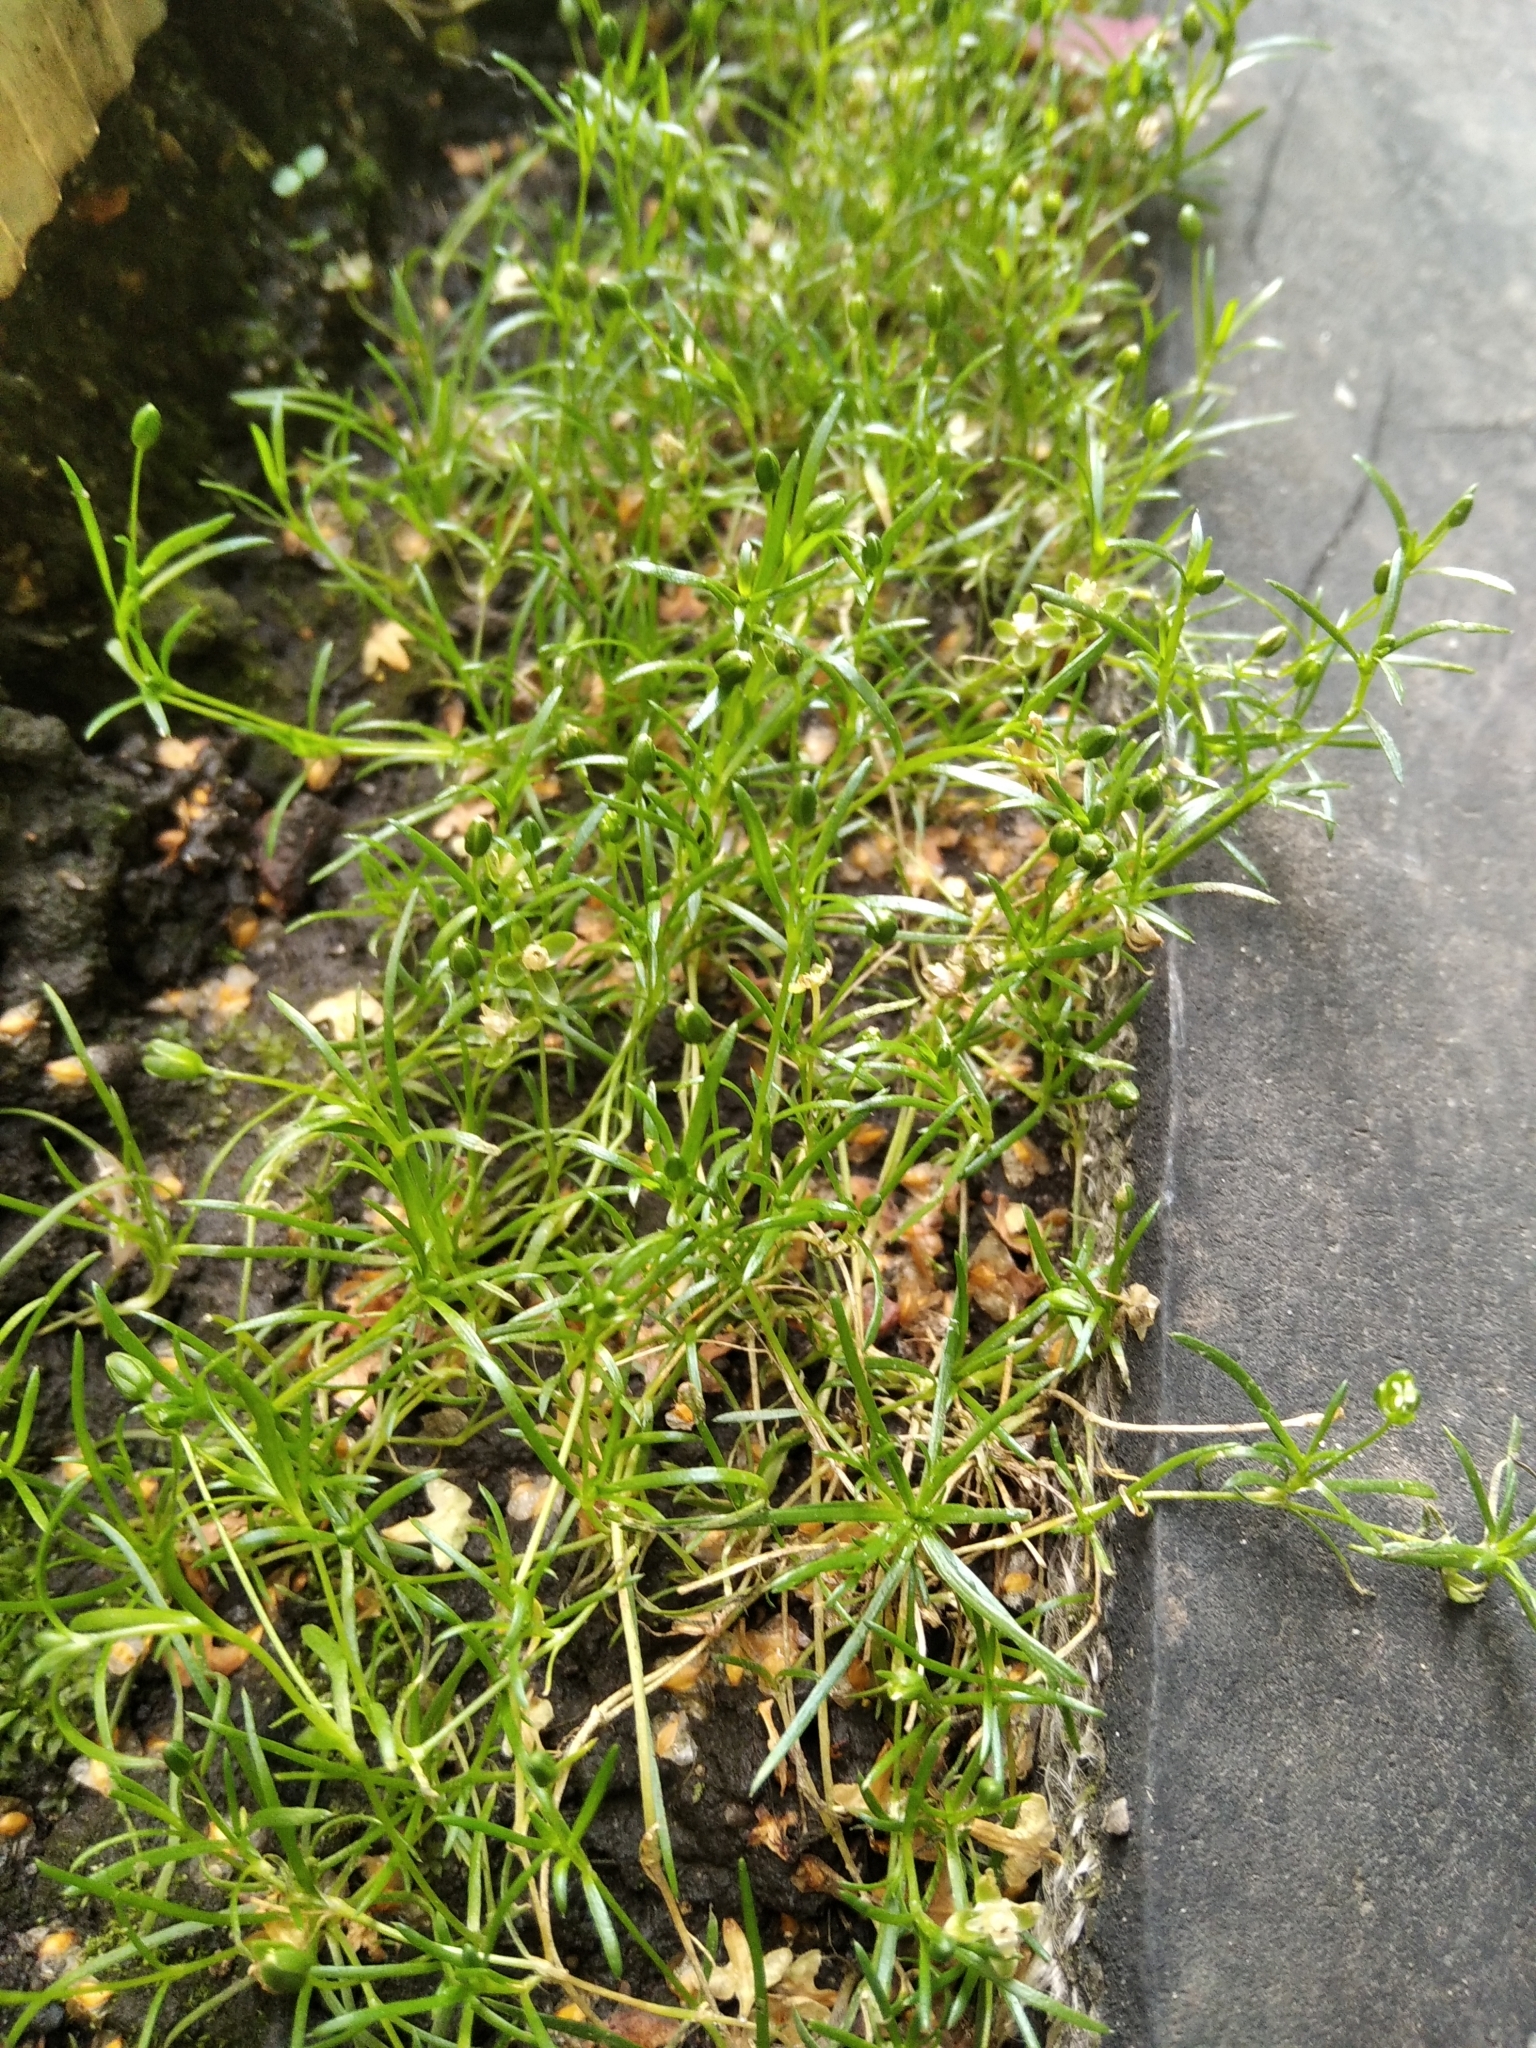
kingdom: Plantae
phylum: Tracheophyta
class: Magnoliopsida
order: Caryophyllales
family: Caryophyllaceae
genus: Sagina
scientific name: Sagina procumbens
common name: Procumbent pearlwort
